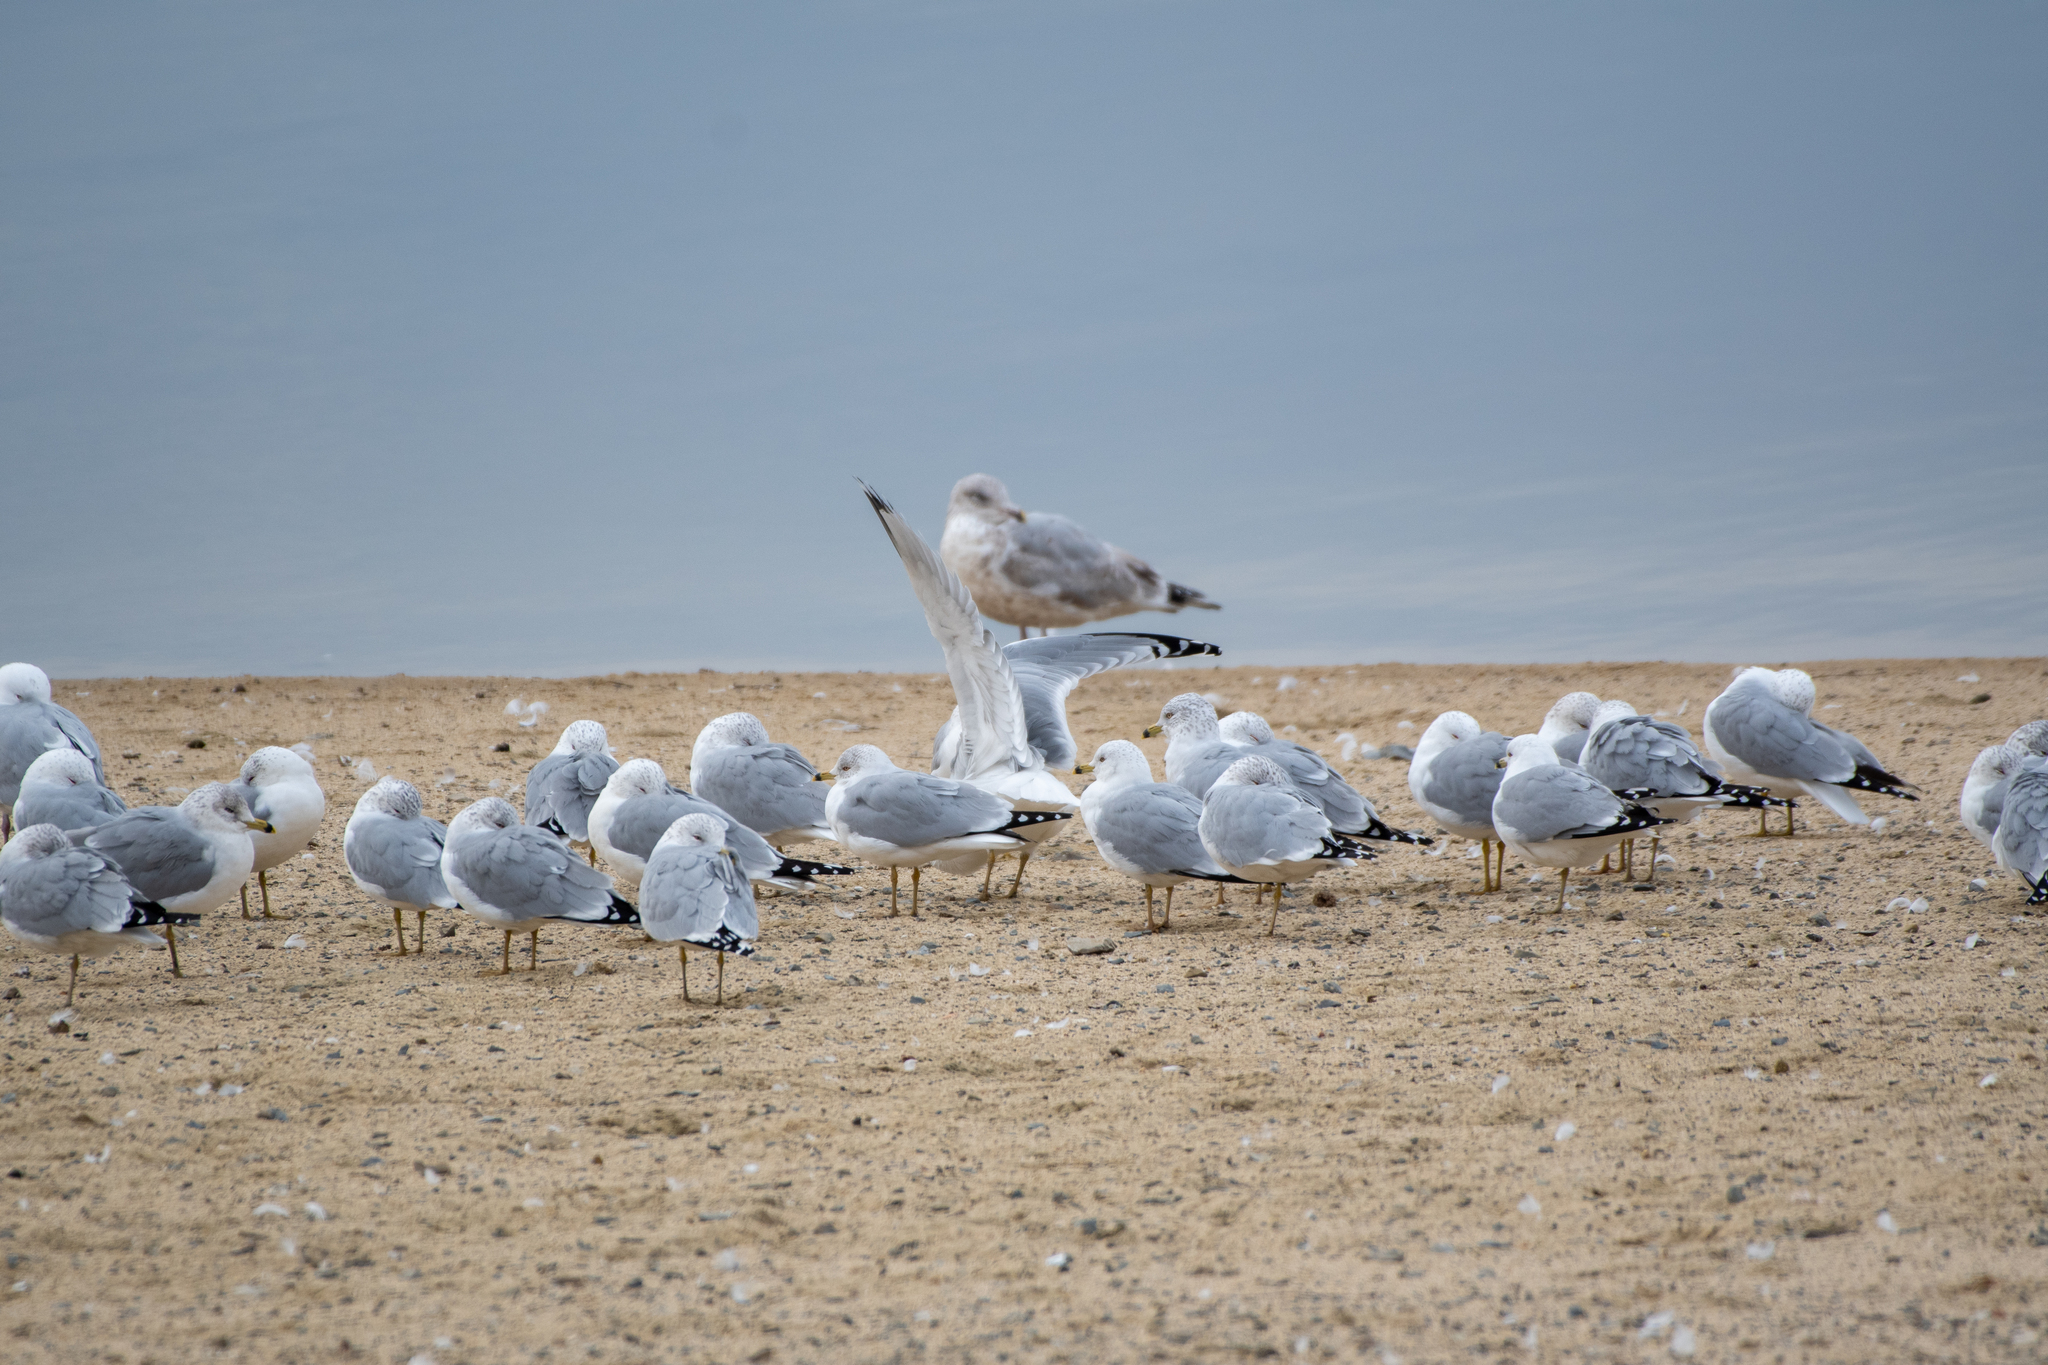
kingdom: Animalia
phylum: Chordata
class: Aves
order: Charadriiformes
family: Laridae
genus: Larus
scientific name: Larus delawarensis
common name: Ring-billed gull
